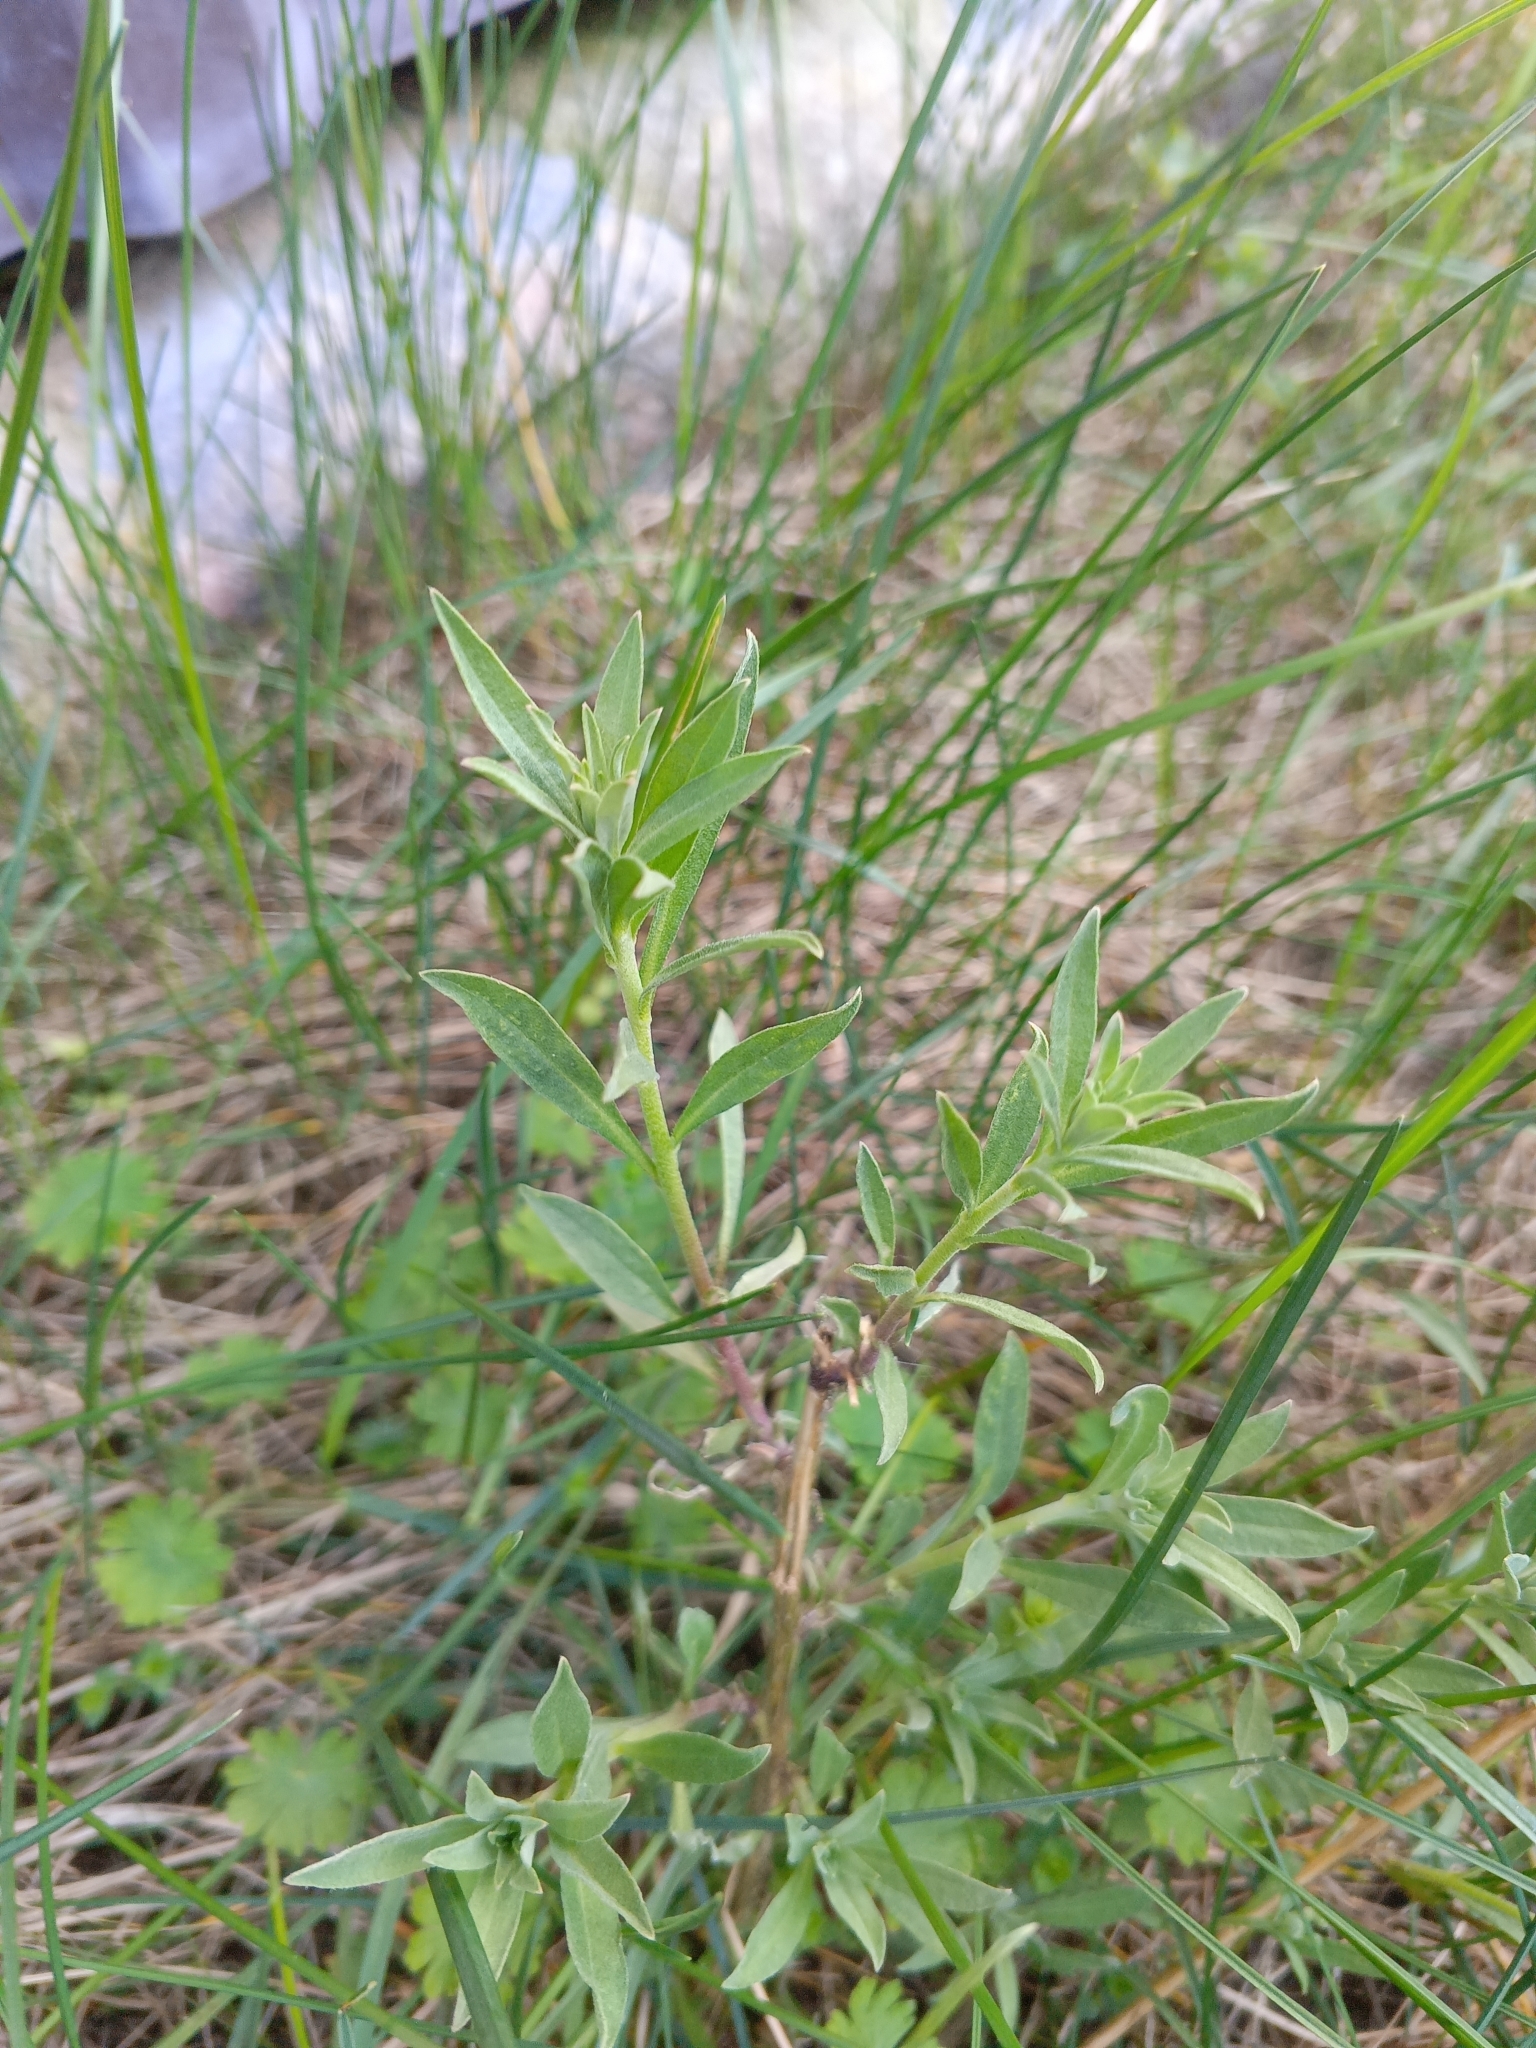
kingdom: Plantae
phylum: Tracheophyta
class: Magnoliopsida
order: Brassicales
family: Brassicaceae
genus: Berteroa
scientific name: Berteroa incana
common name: Hoary alison
